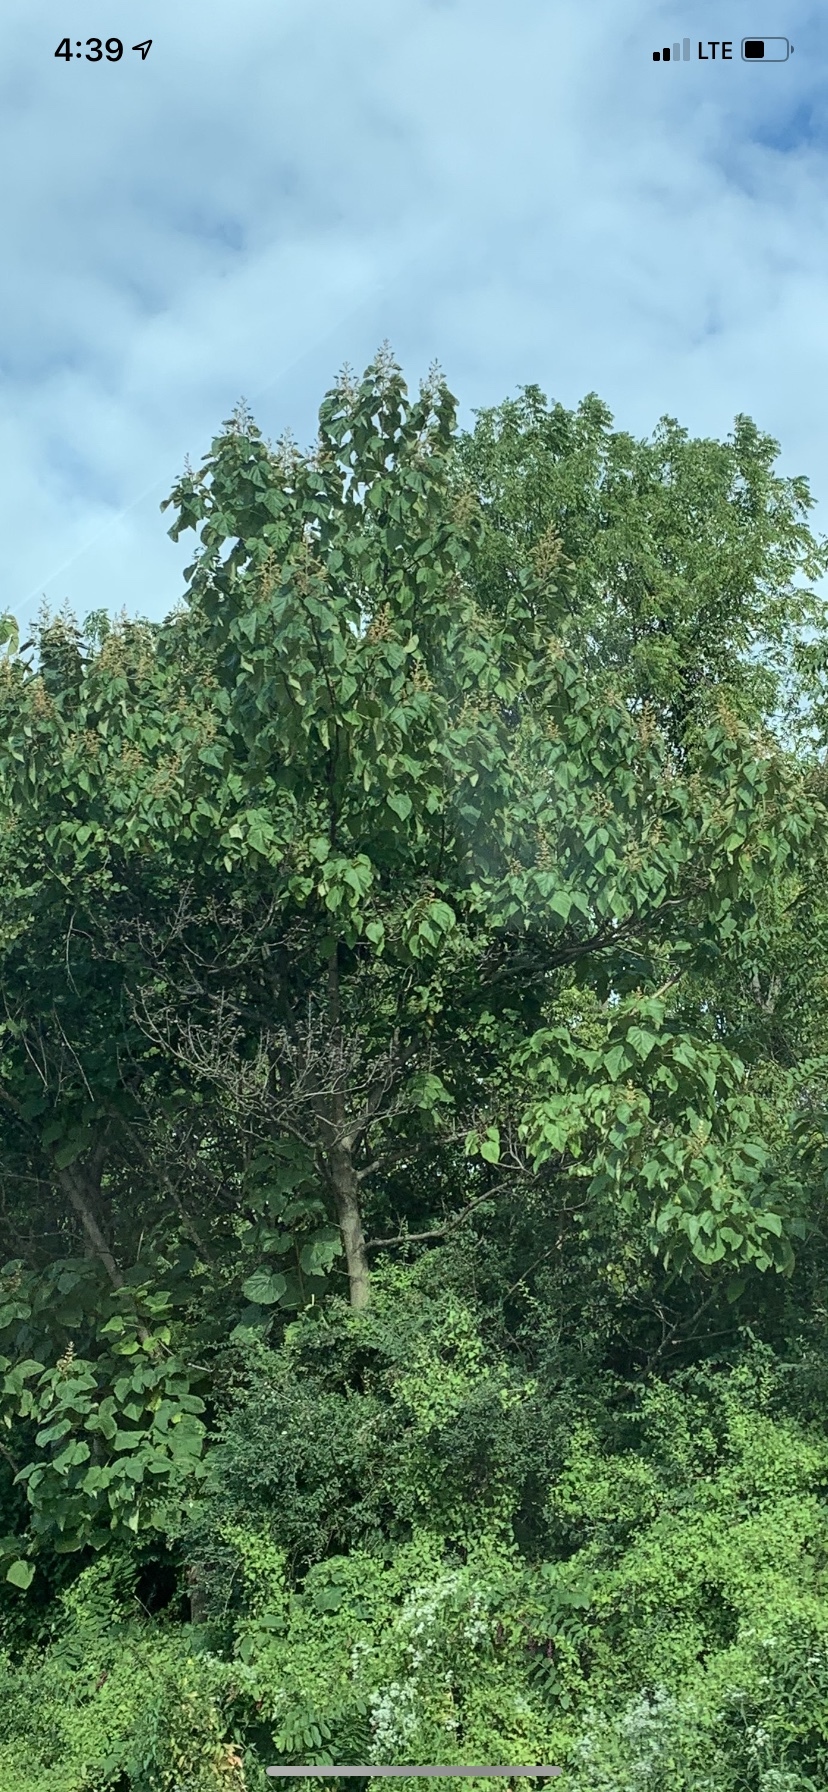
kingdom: Plantae
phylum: Tracheophyta
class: Magnoliopsida
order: Lamiales
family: Paulowniaceae
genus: Paulownia
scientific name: Paulownia tomentosa
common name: Foxglove-tree
